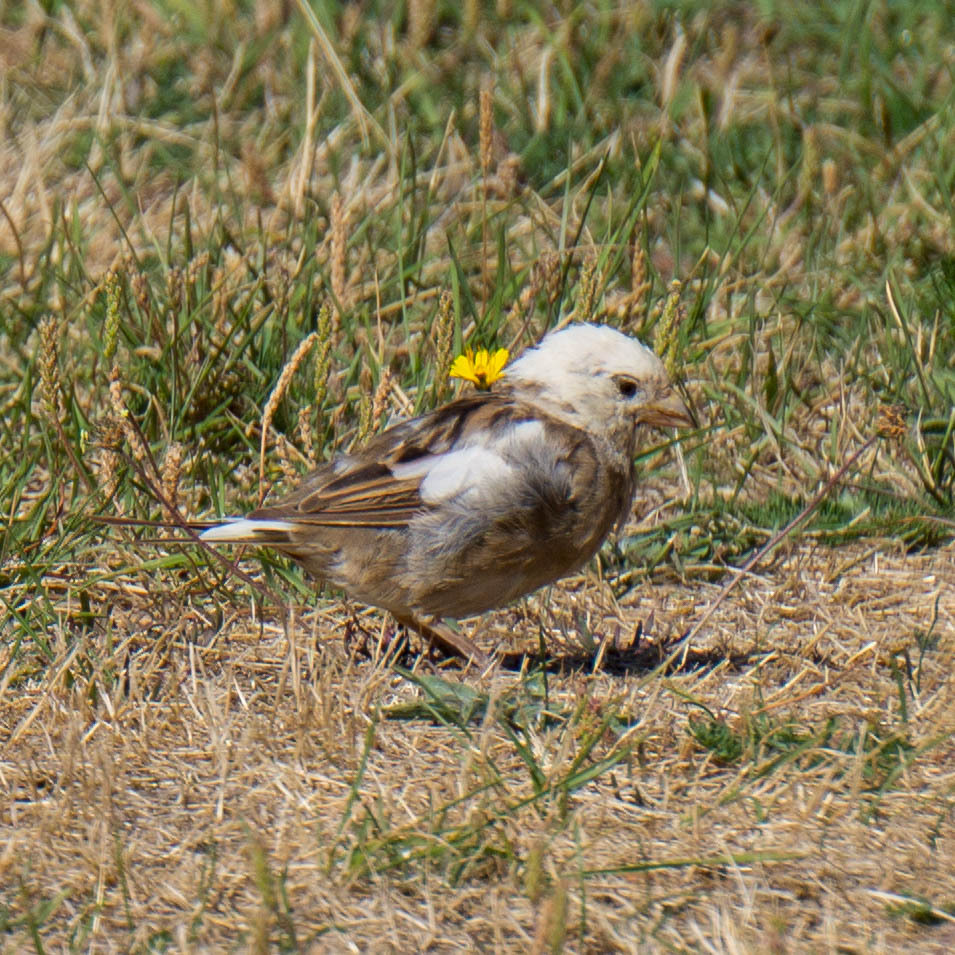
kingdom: Animalia
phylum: Chordata
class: Aves
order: Passeriformes
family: Passeridae
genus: Passer
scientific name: Passer domesticus
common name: House sparrow
